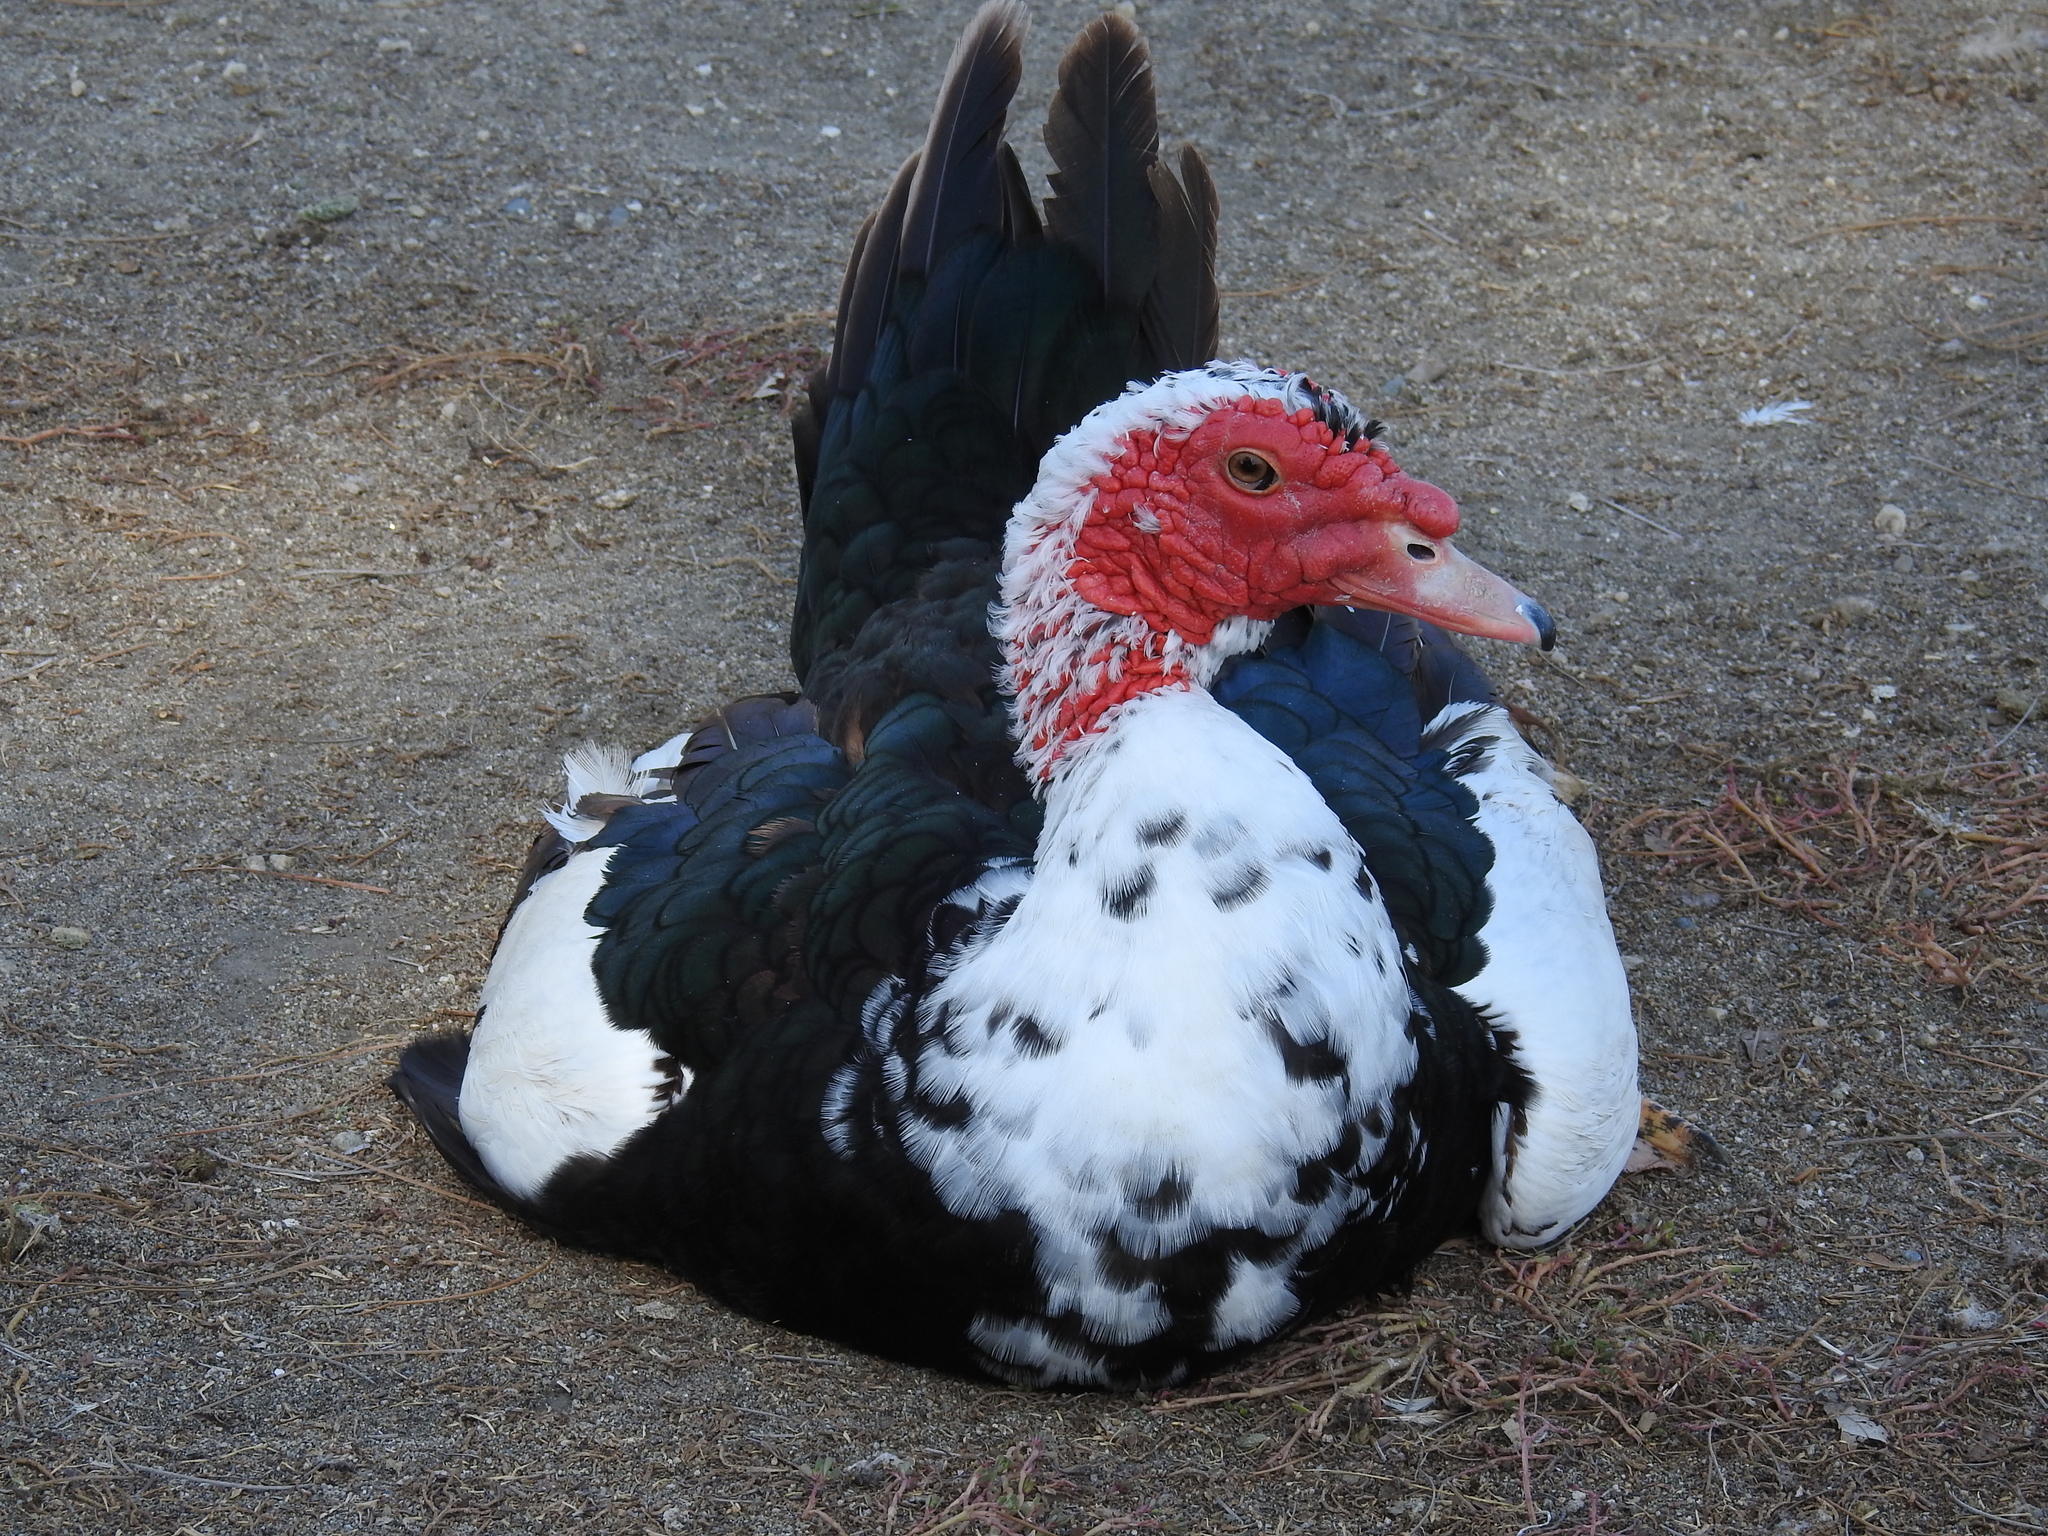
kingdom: Animalia
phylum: Chordata
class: Aves
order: Anseriformes
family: Anatidae
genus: Cairina
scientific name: Cairina moschata
